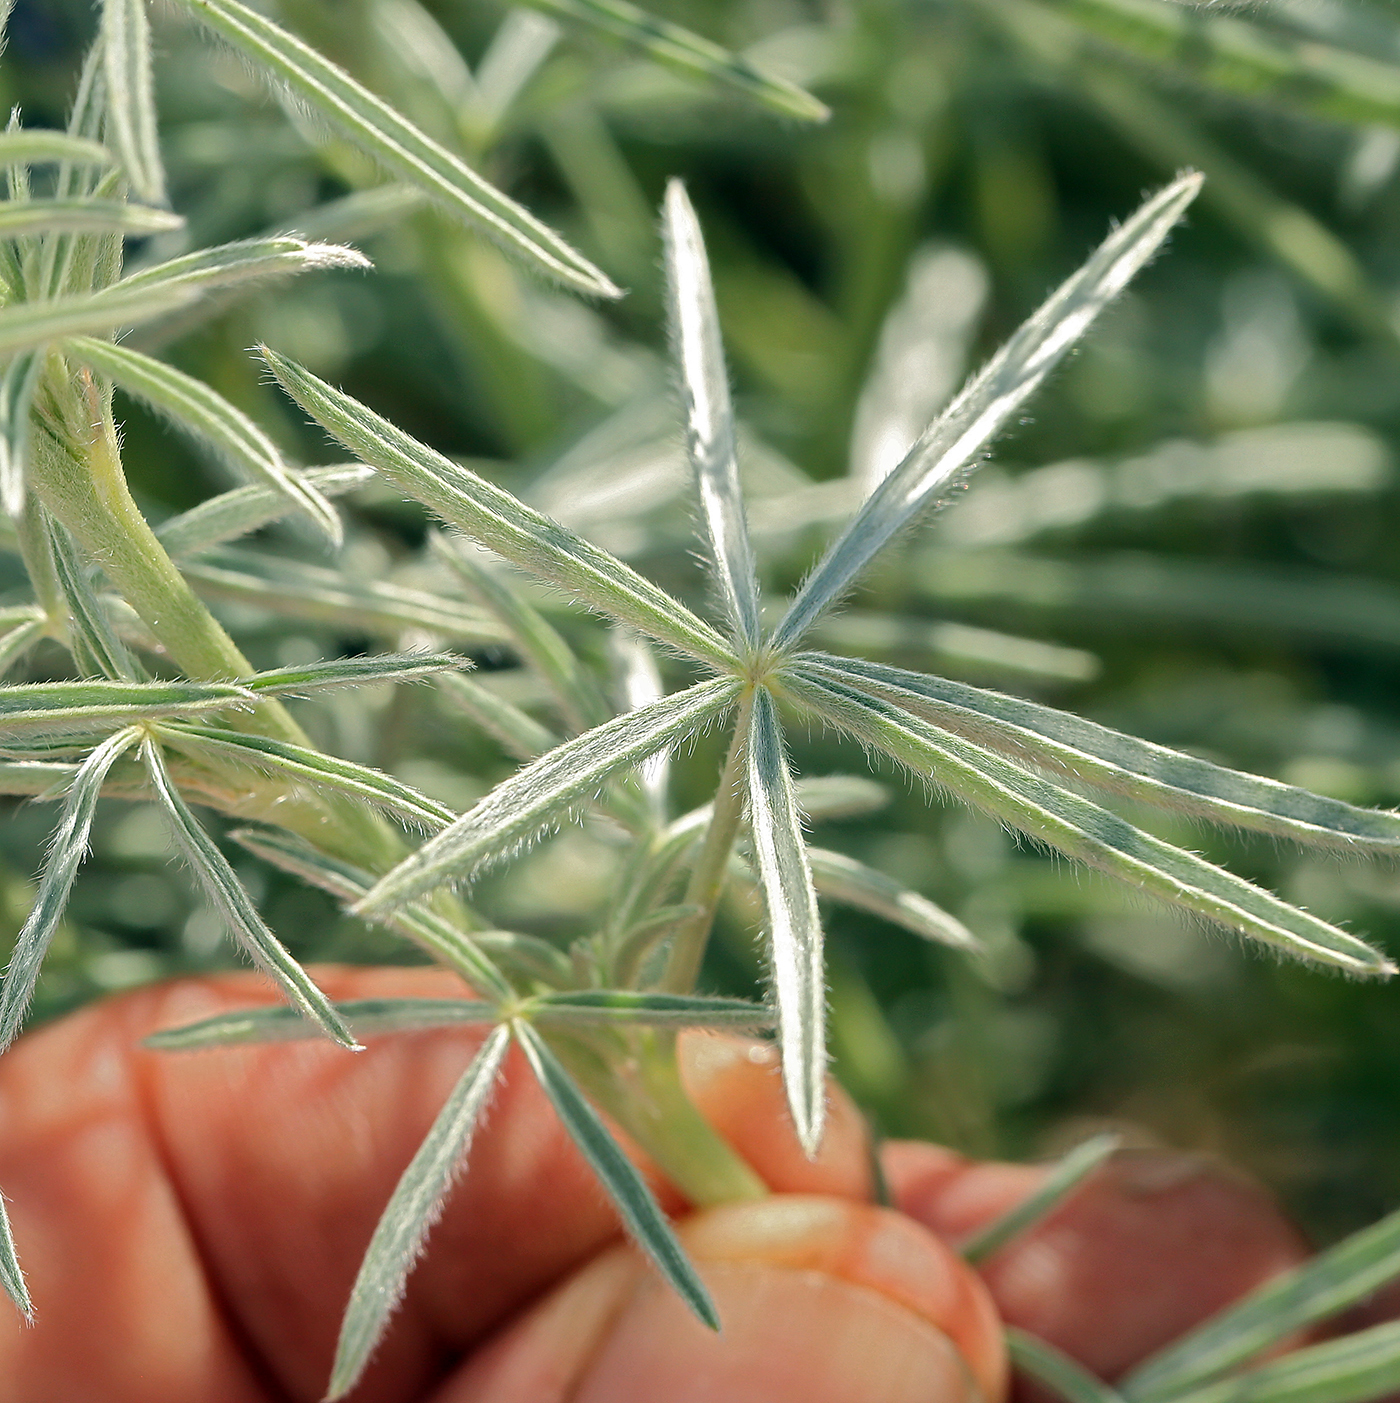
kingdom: Plantae
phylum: Tracheophyta
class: Magnoliopsida
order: Fabales
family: Fabaceae
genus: Lupinus
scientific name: Lupinus caudatus
